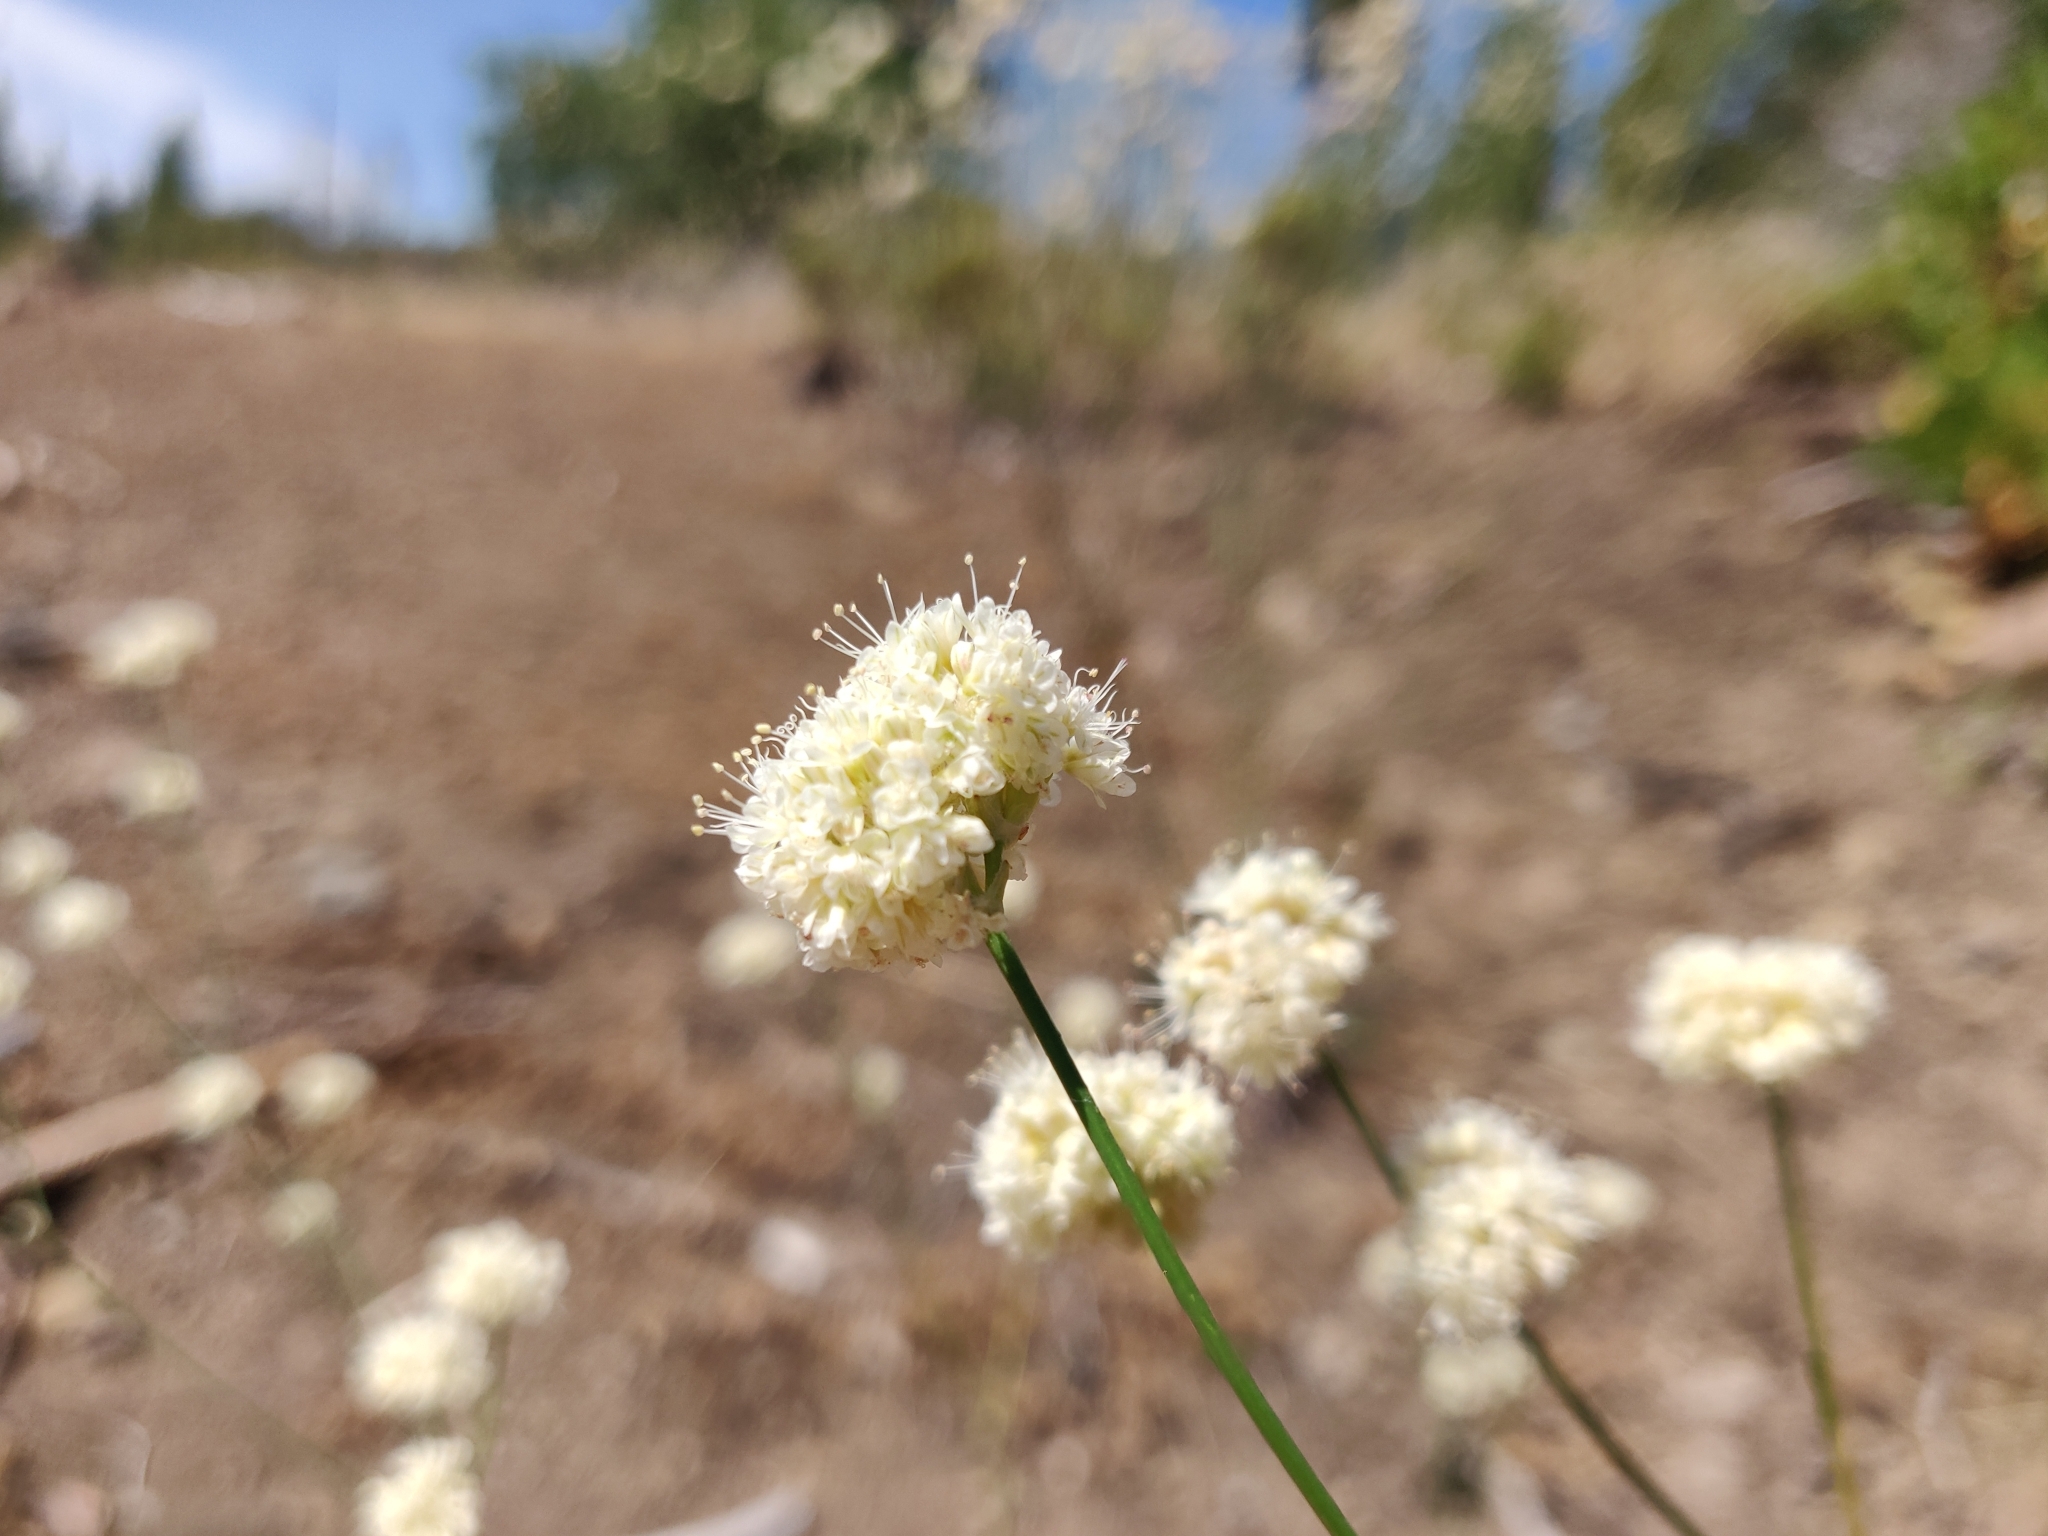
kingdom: Plantae
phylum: Tracheophyta
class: Magnoliopsida
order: Caryophyllales
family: Polygonaceae
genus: Eriogonum
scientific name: Eriogonum nudum
